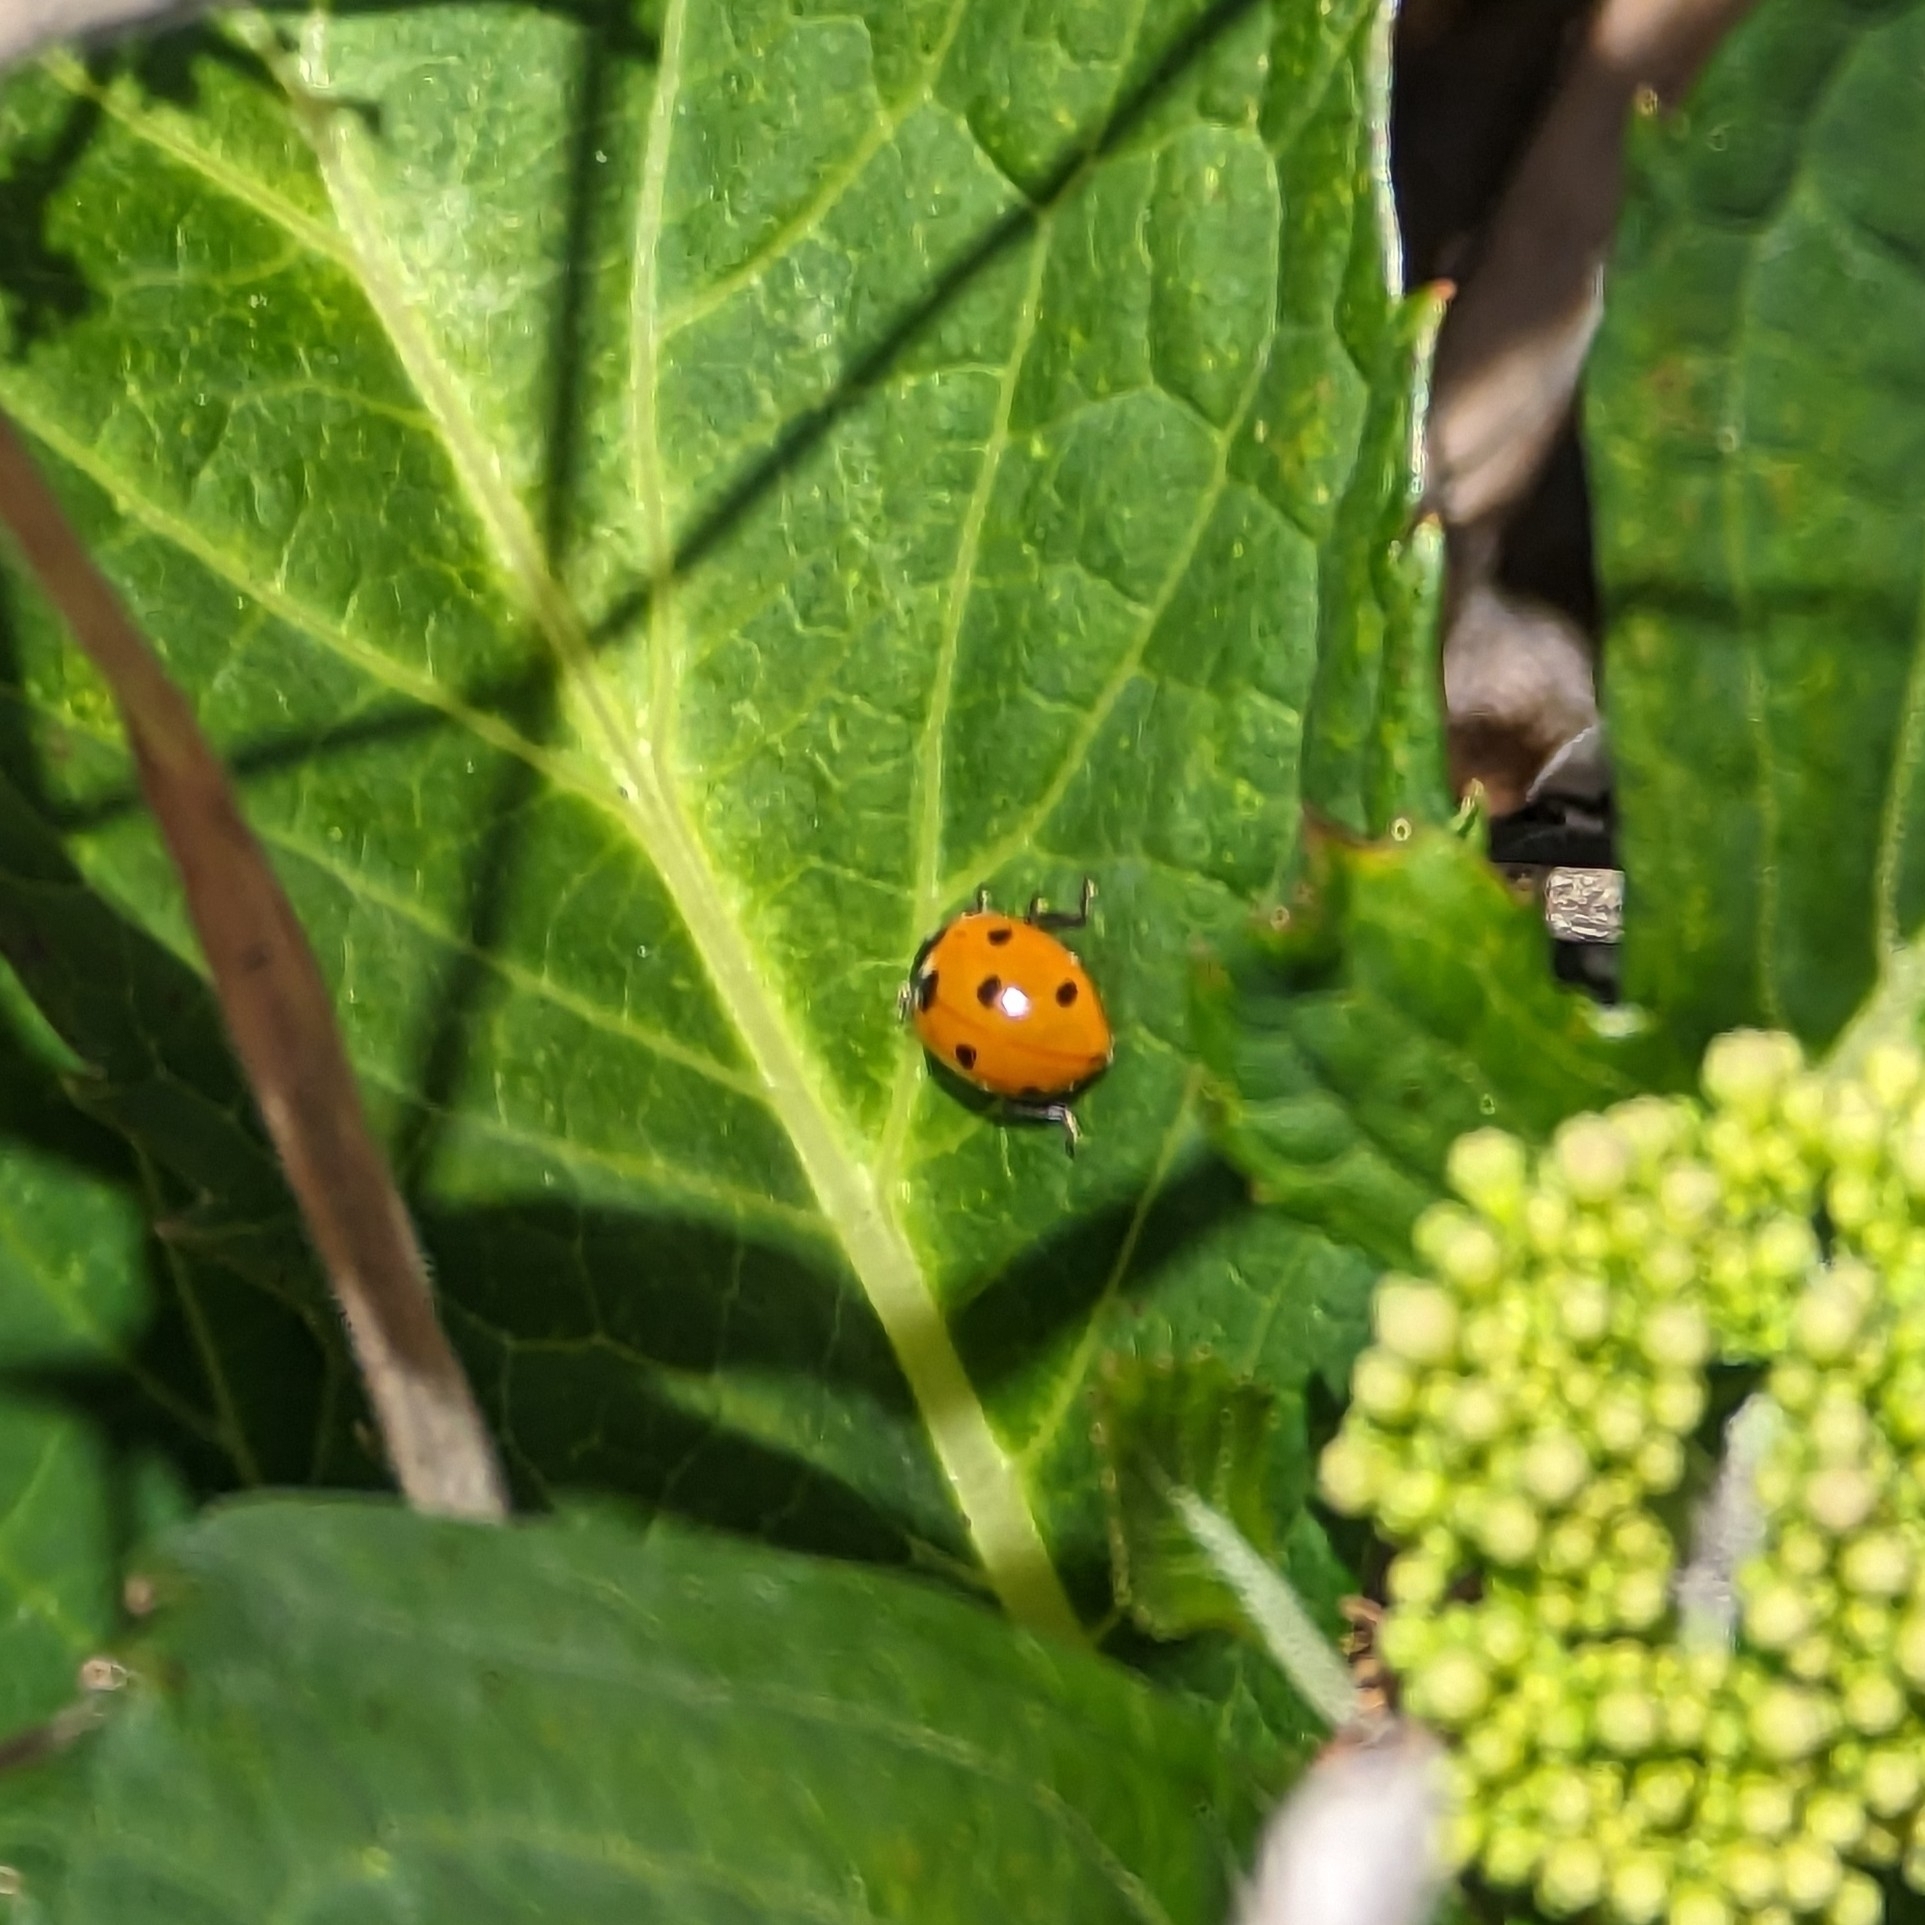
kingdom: Animalia
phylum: Arthropoda
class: Insecta
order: Coleoptera
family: Coccinellidae
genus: Coccinella
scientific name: Coccinella septempunctata
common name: Sevenspotted lady beetle
